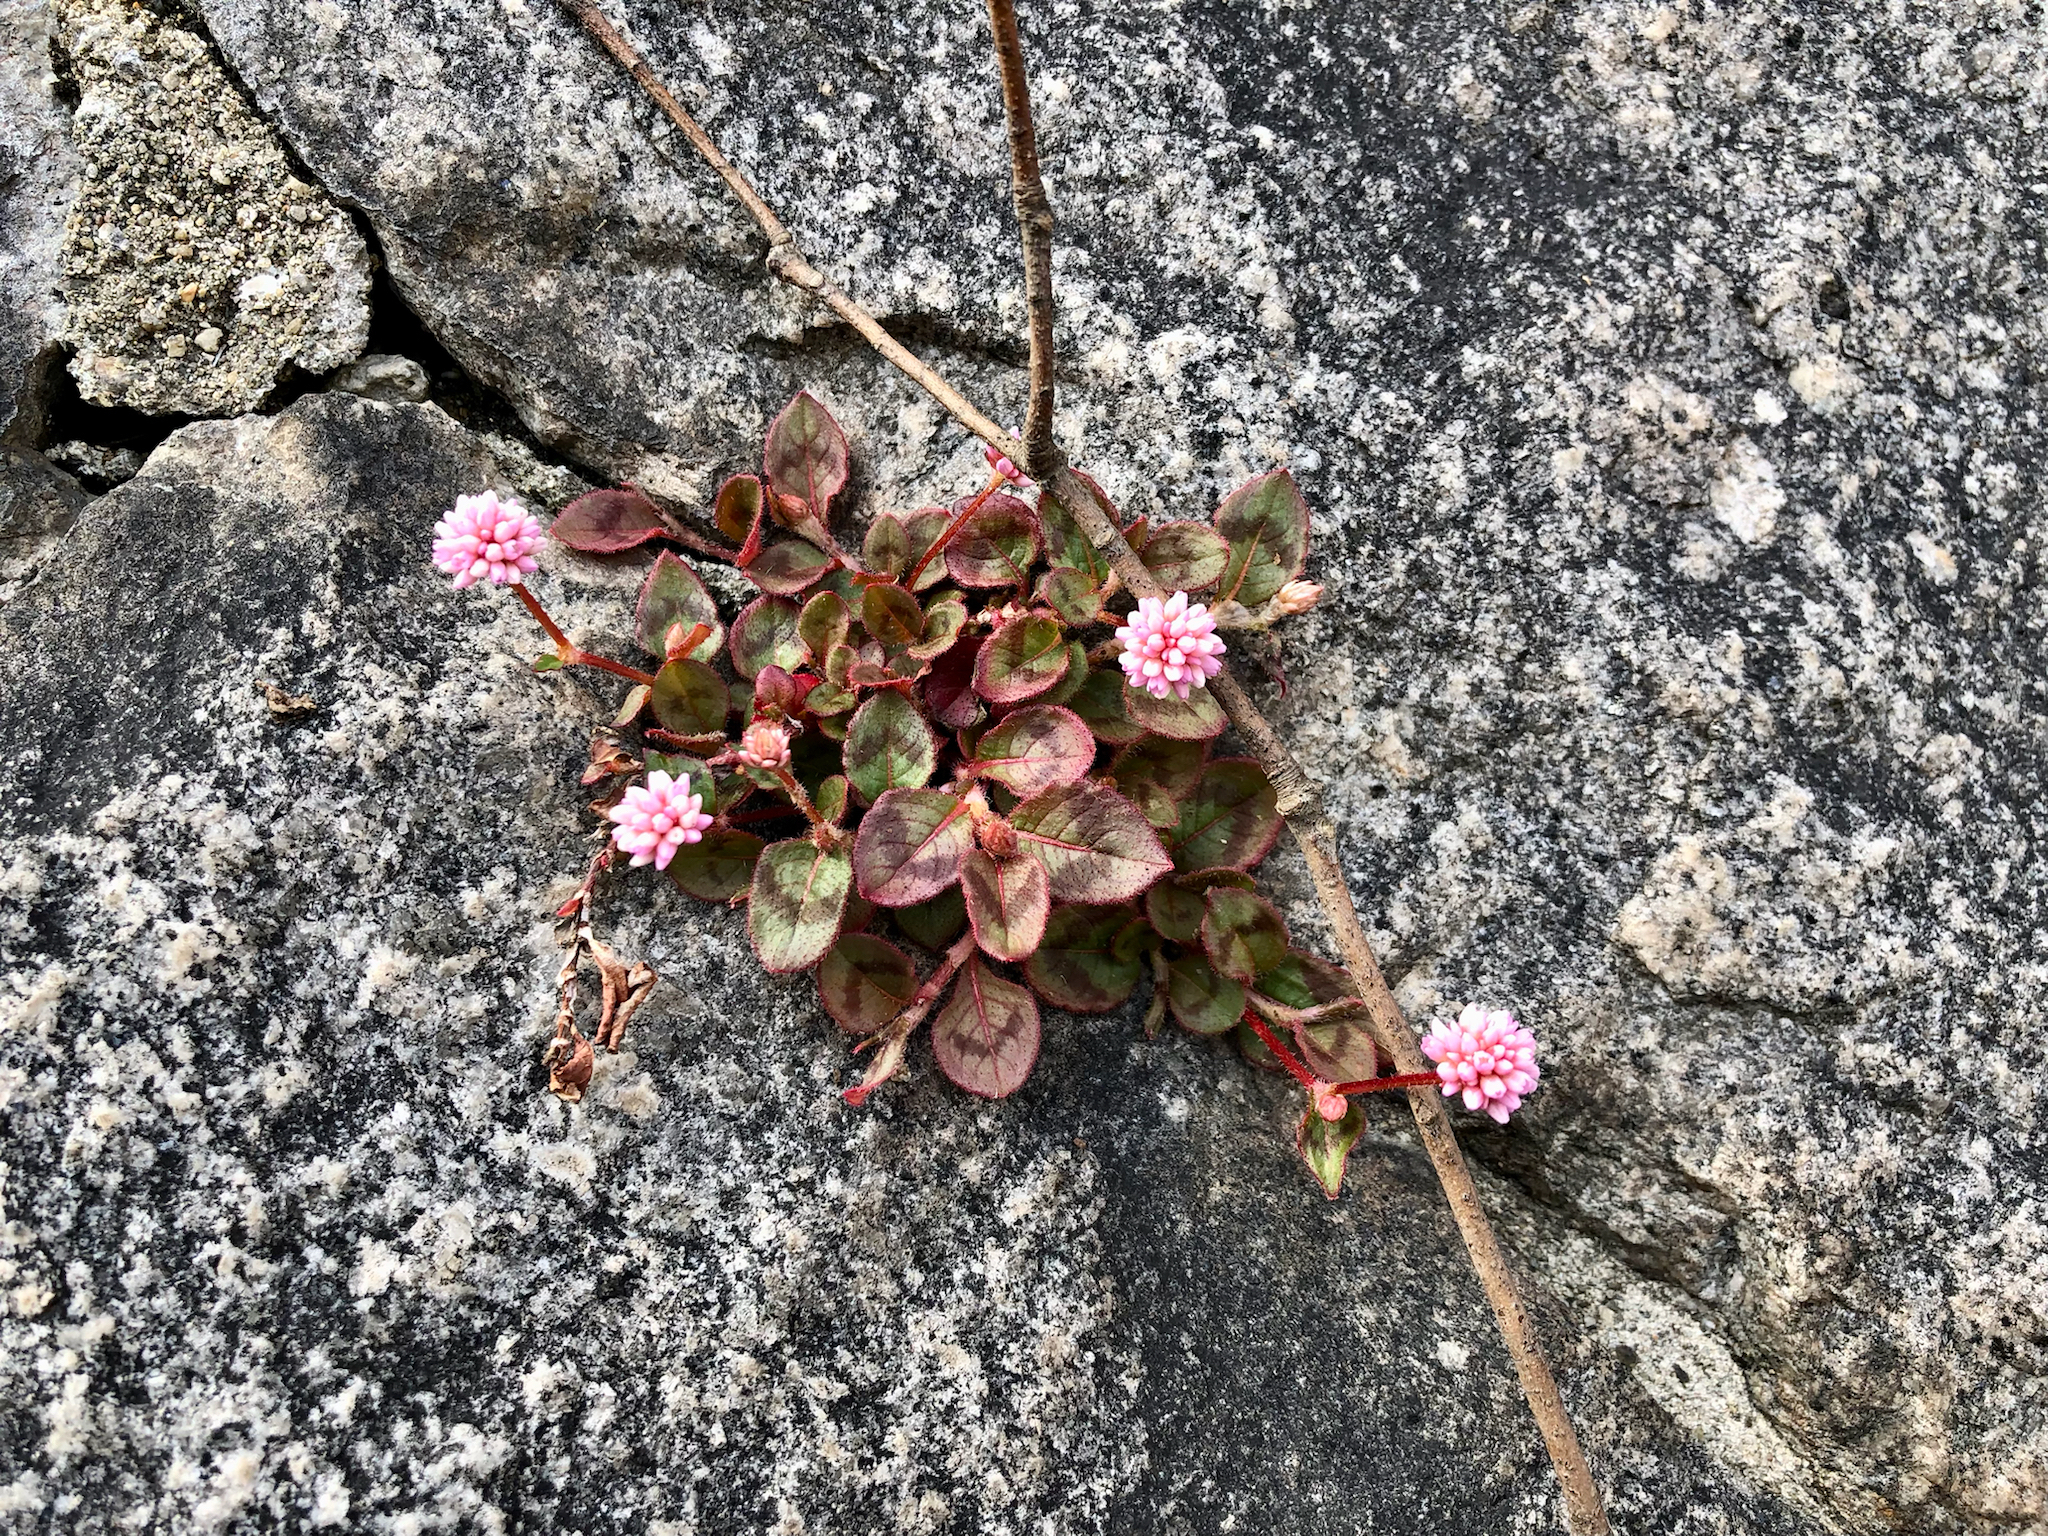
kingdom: Plantae
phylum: Tracheophyta
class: Magnoliopsida
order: Caryophyllales
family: Polygonaceae
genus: Persicaria
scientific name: Persicaria capitata
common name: Pinkhead smartweed
